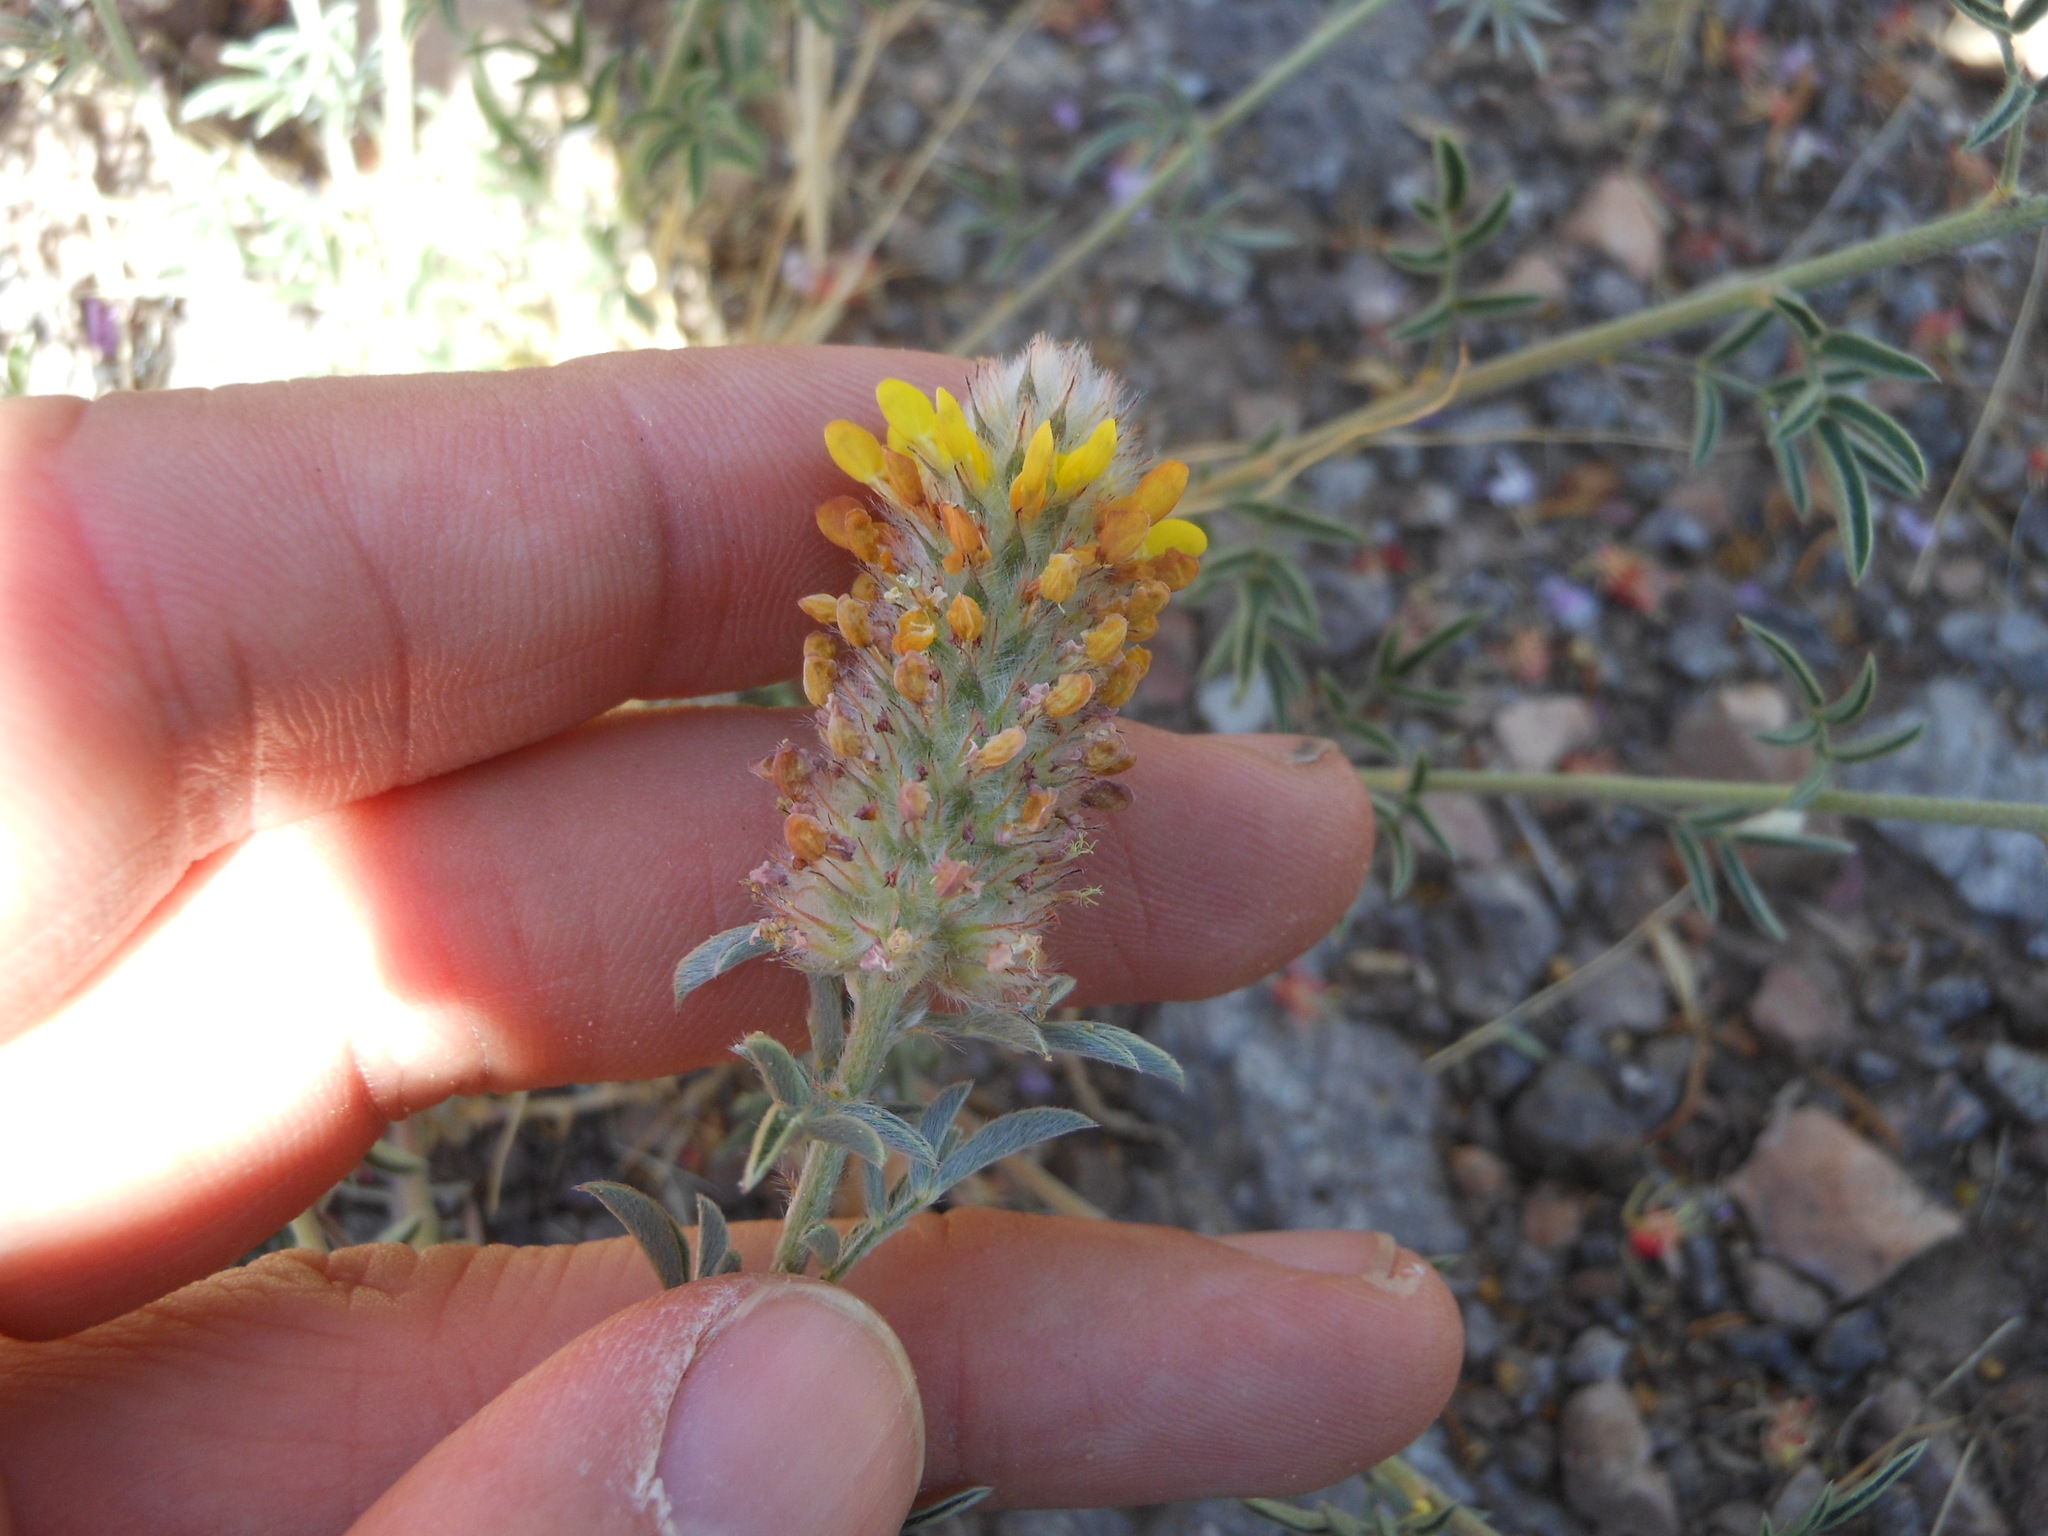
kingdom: Plantae
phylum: Tracheophyta
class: Magnoliopsida
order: Fabales
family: Fabaceae
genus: Dalea
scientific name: Dalea nana
